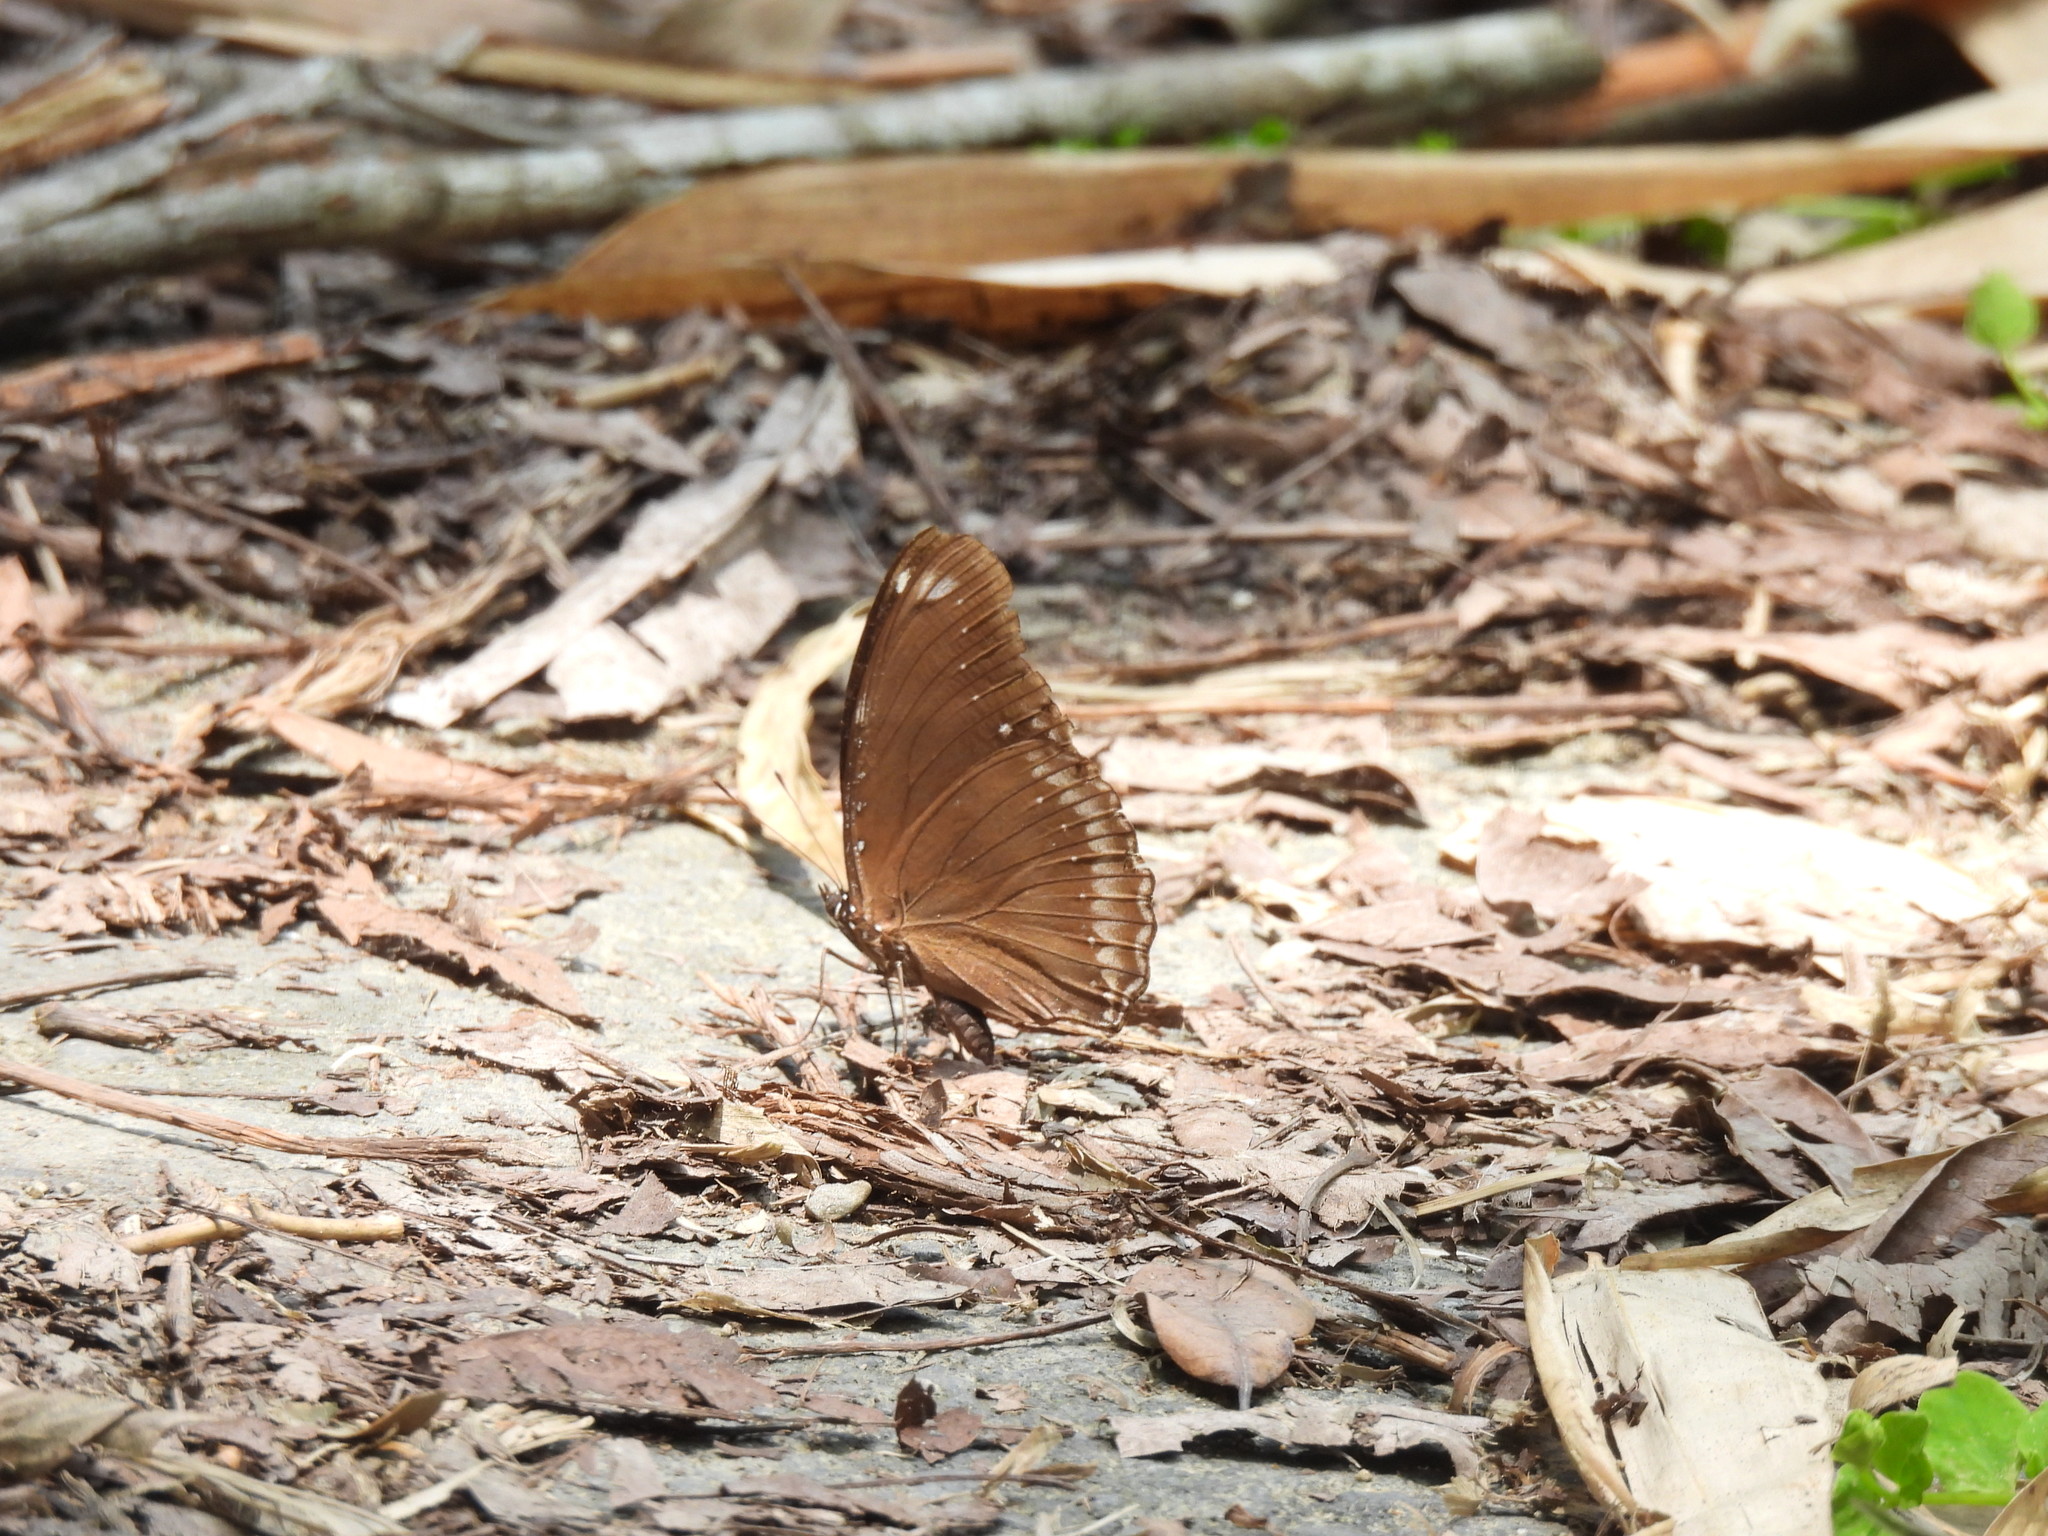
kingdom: Animalia
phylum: Arthropoda
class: Insecta
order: Lepidoptera
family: Nymphalidae
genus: Hypolimnas
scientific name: Hypolimnas bolina
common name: Great eggfly
